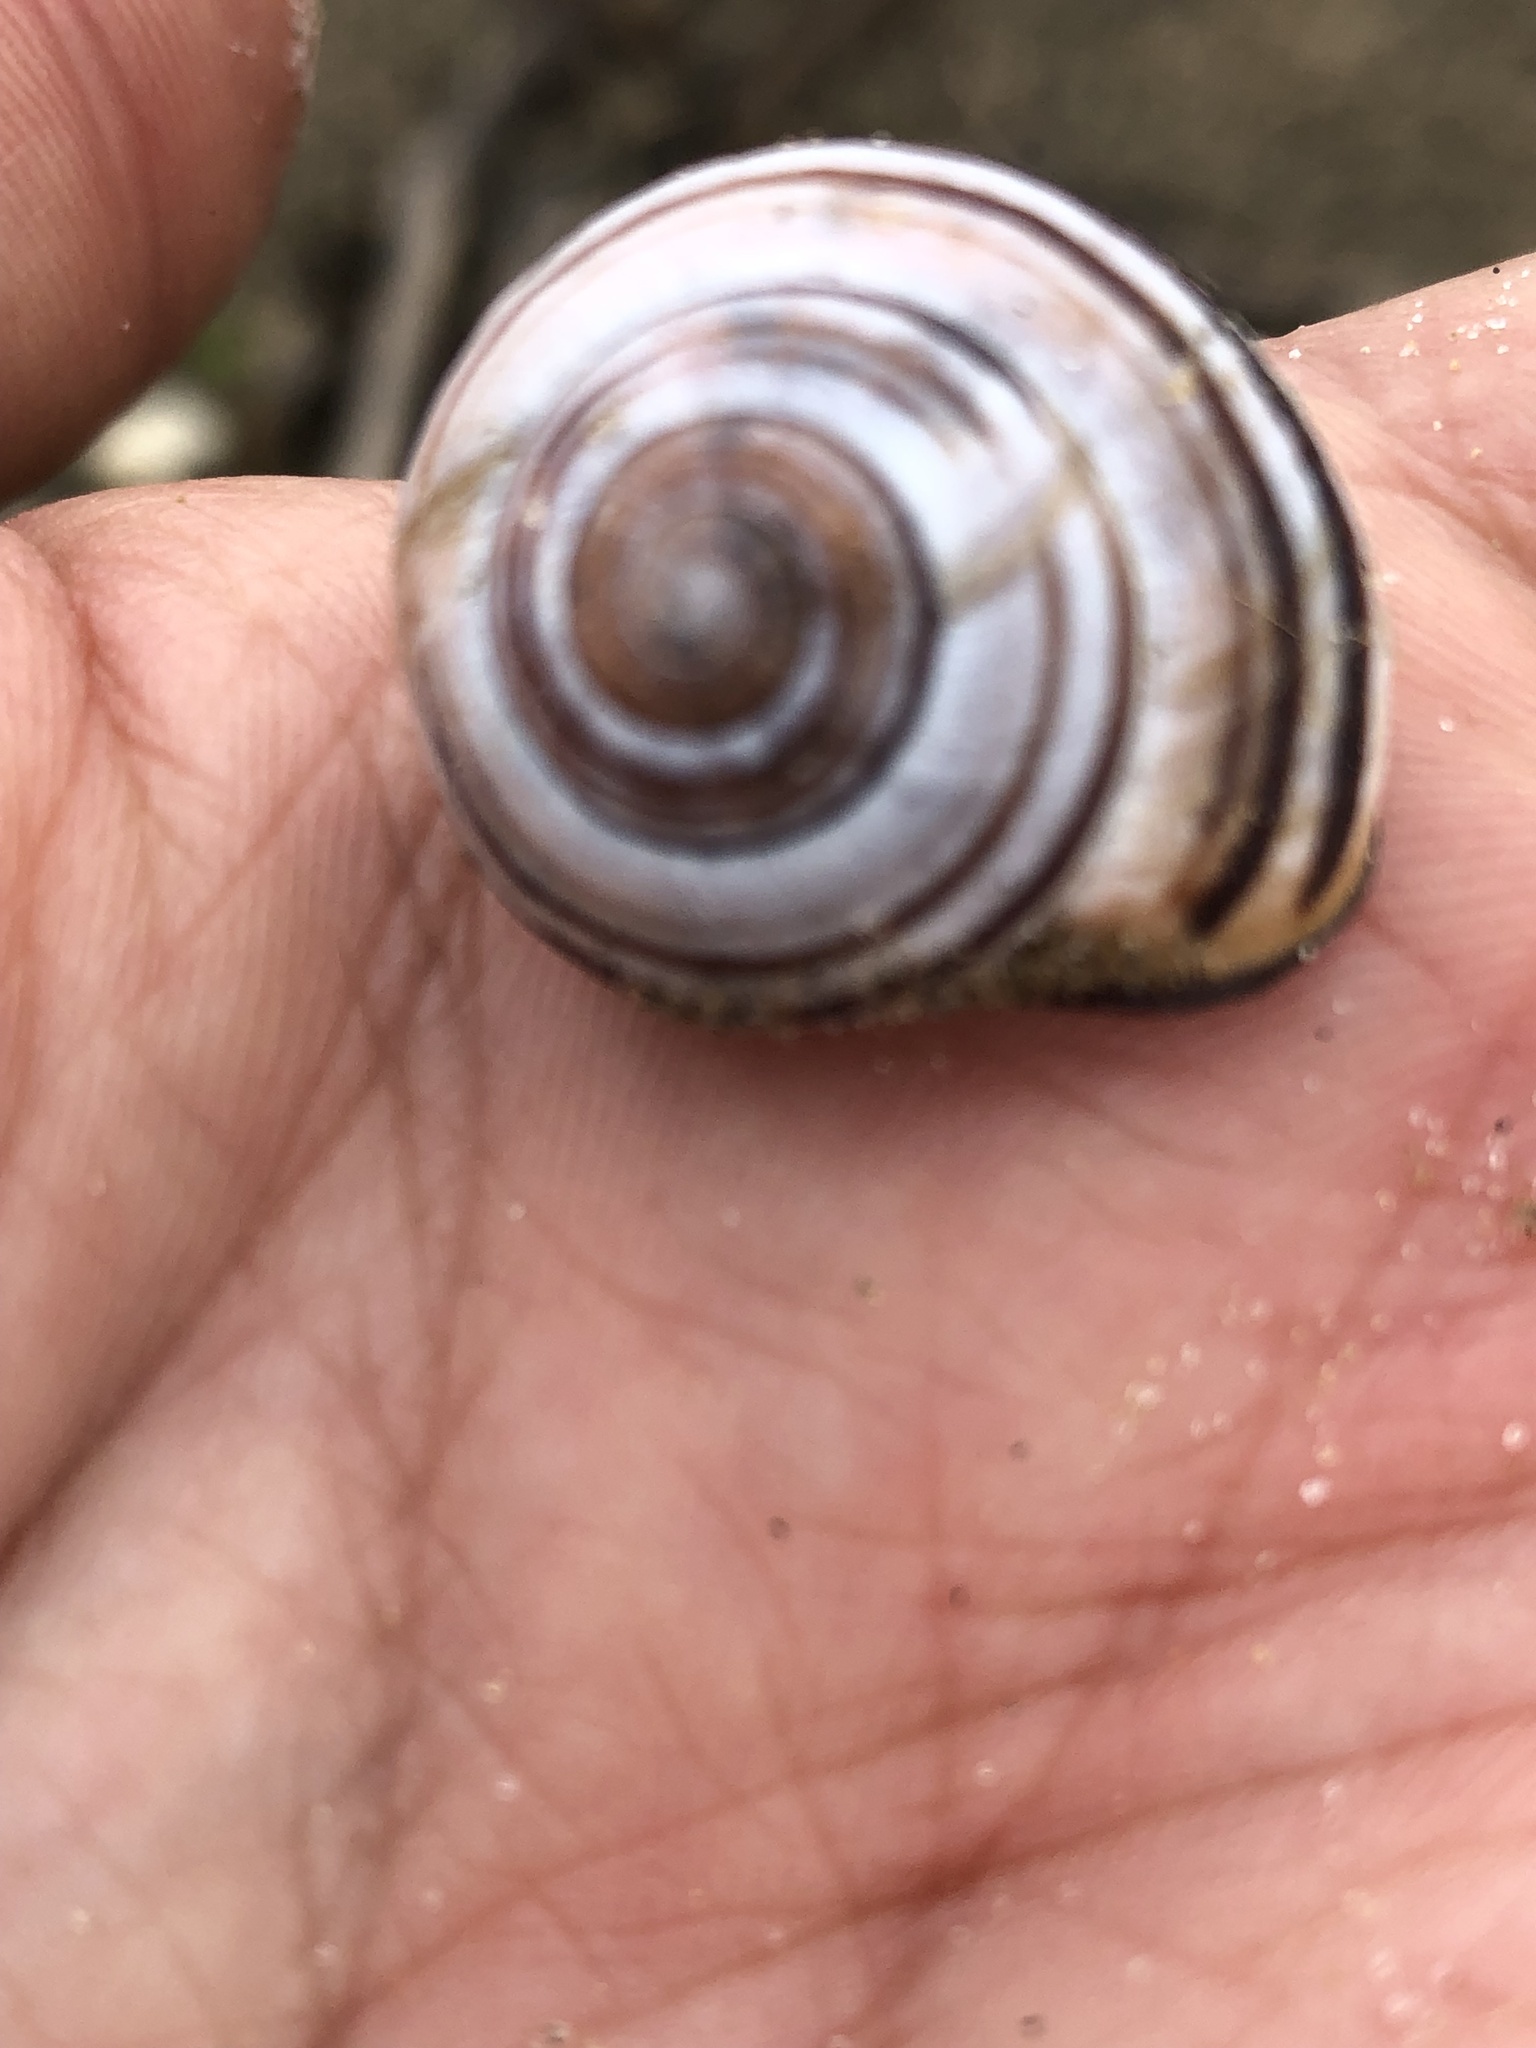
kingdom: Animalia
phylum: Mollusca
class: Gastropoda
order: Stylommatophora
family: Helicidae
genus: Cepaea
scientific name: Cepaea nemoralis
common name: Grovesnail
